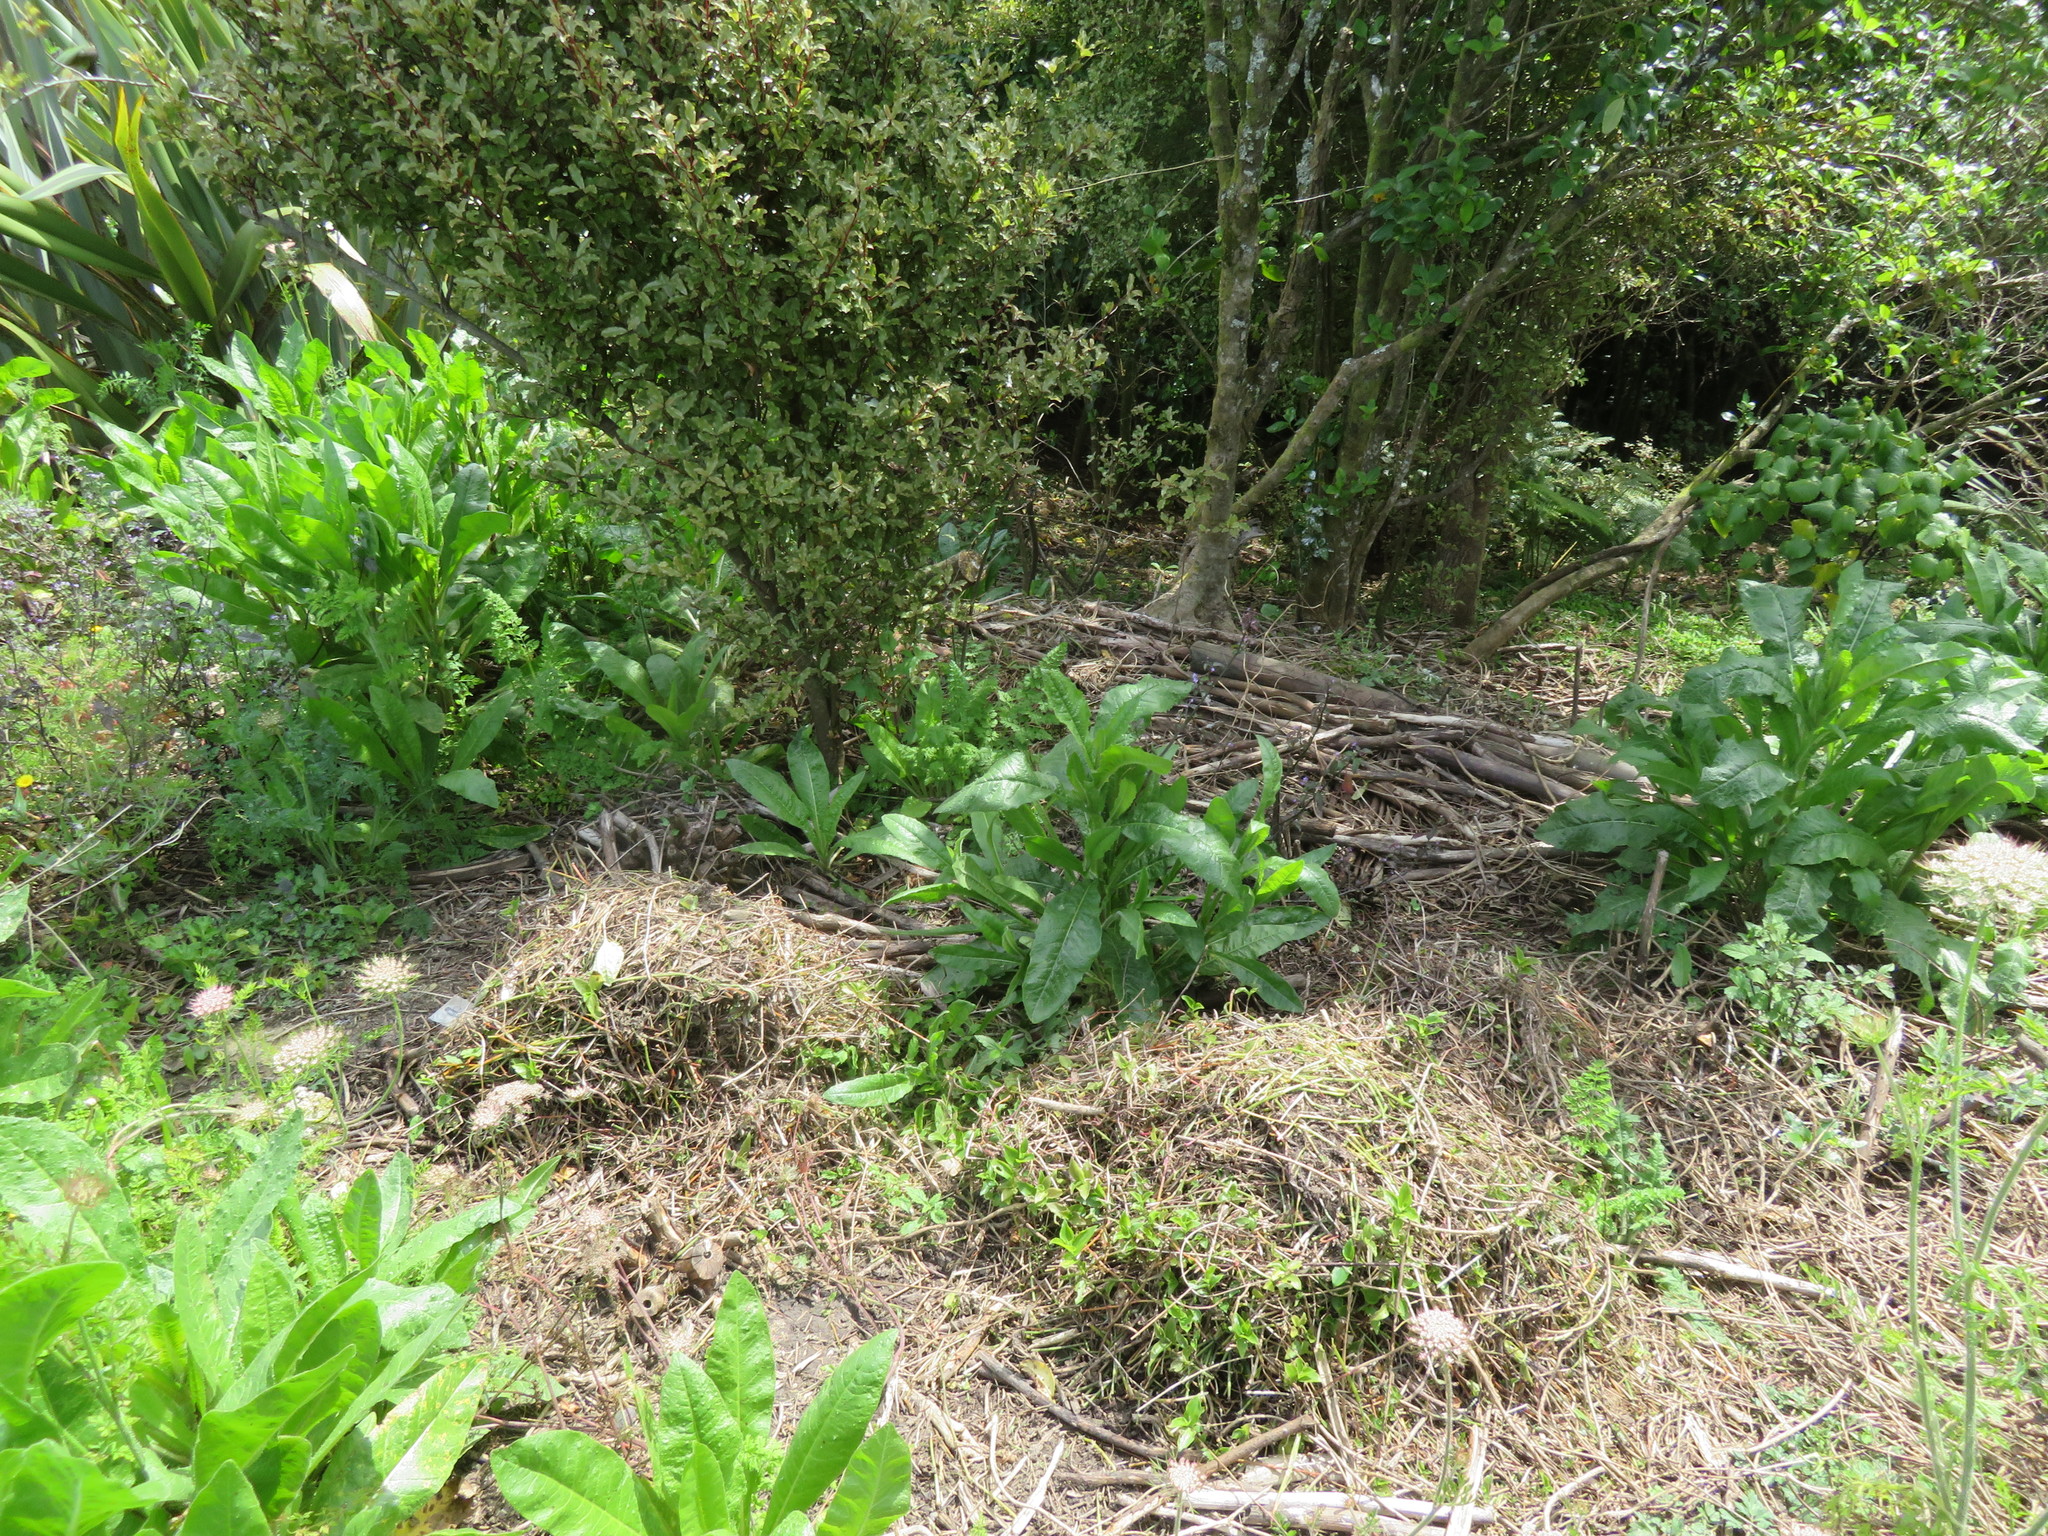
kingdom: Plantae
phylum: Tracheophyta
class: Liliopsida
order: Commelinales
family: Commelinaceae
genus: Tradescantia
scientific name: Tradescantia fluminensis
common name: Wandering-jew
